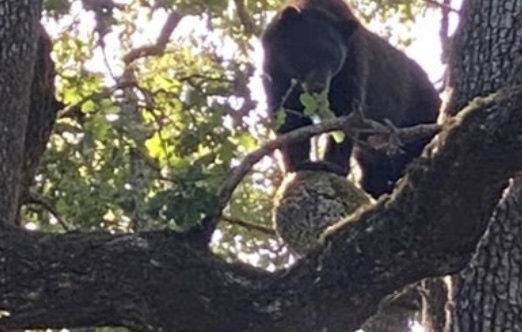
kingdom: Animalia
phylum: Chordata
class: Mammalia
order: Carnivora
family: Ursidae
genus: Ursus
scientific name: Ursus americanus
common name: American black bear
